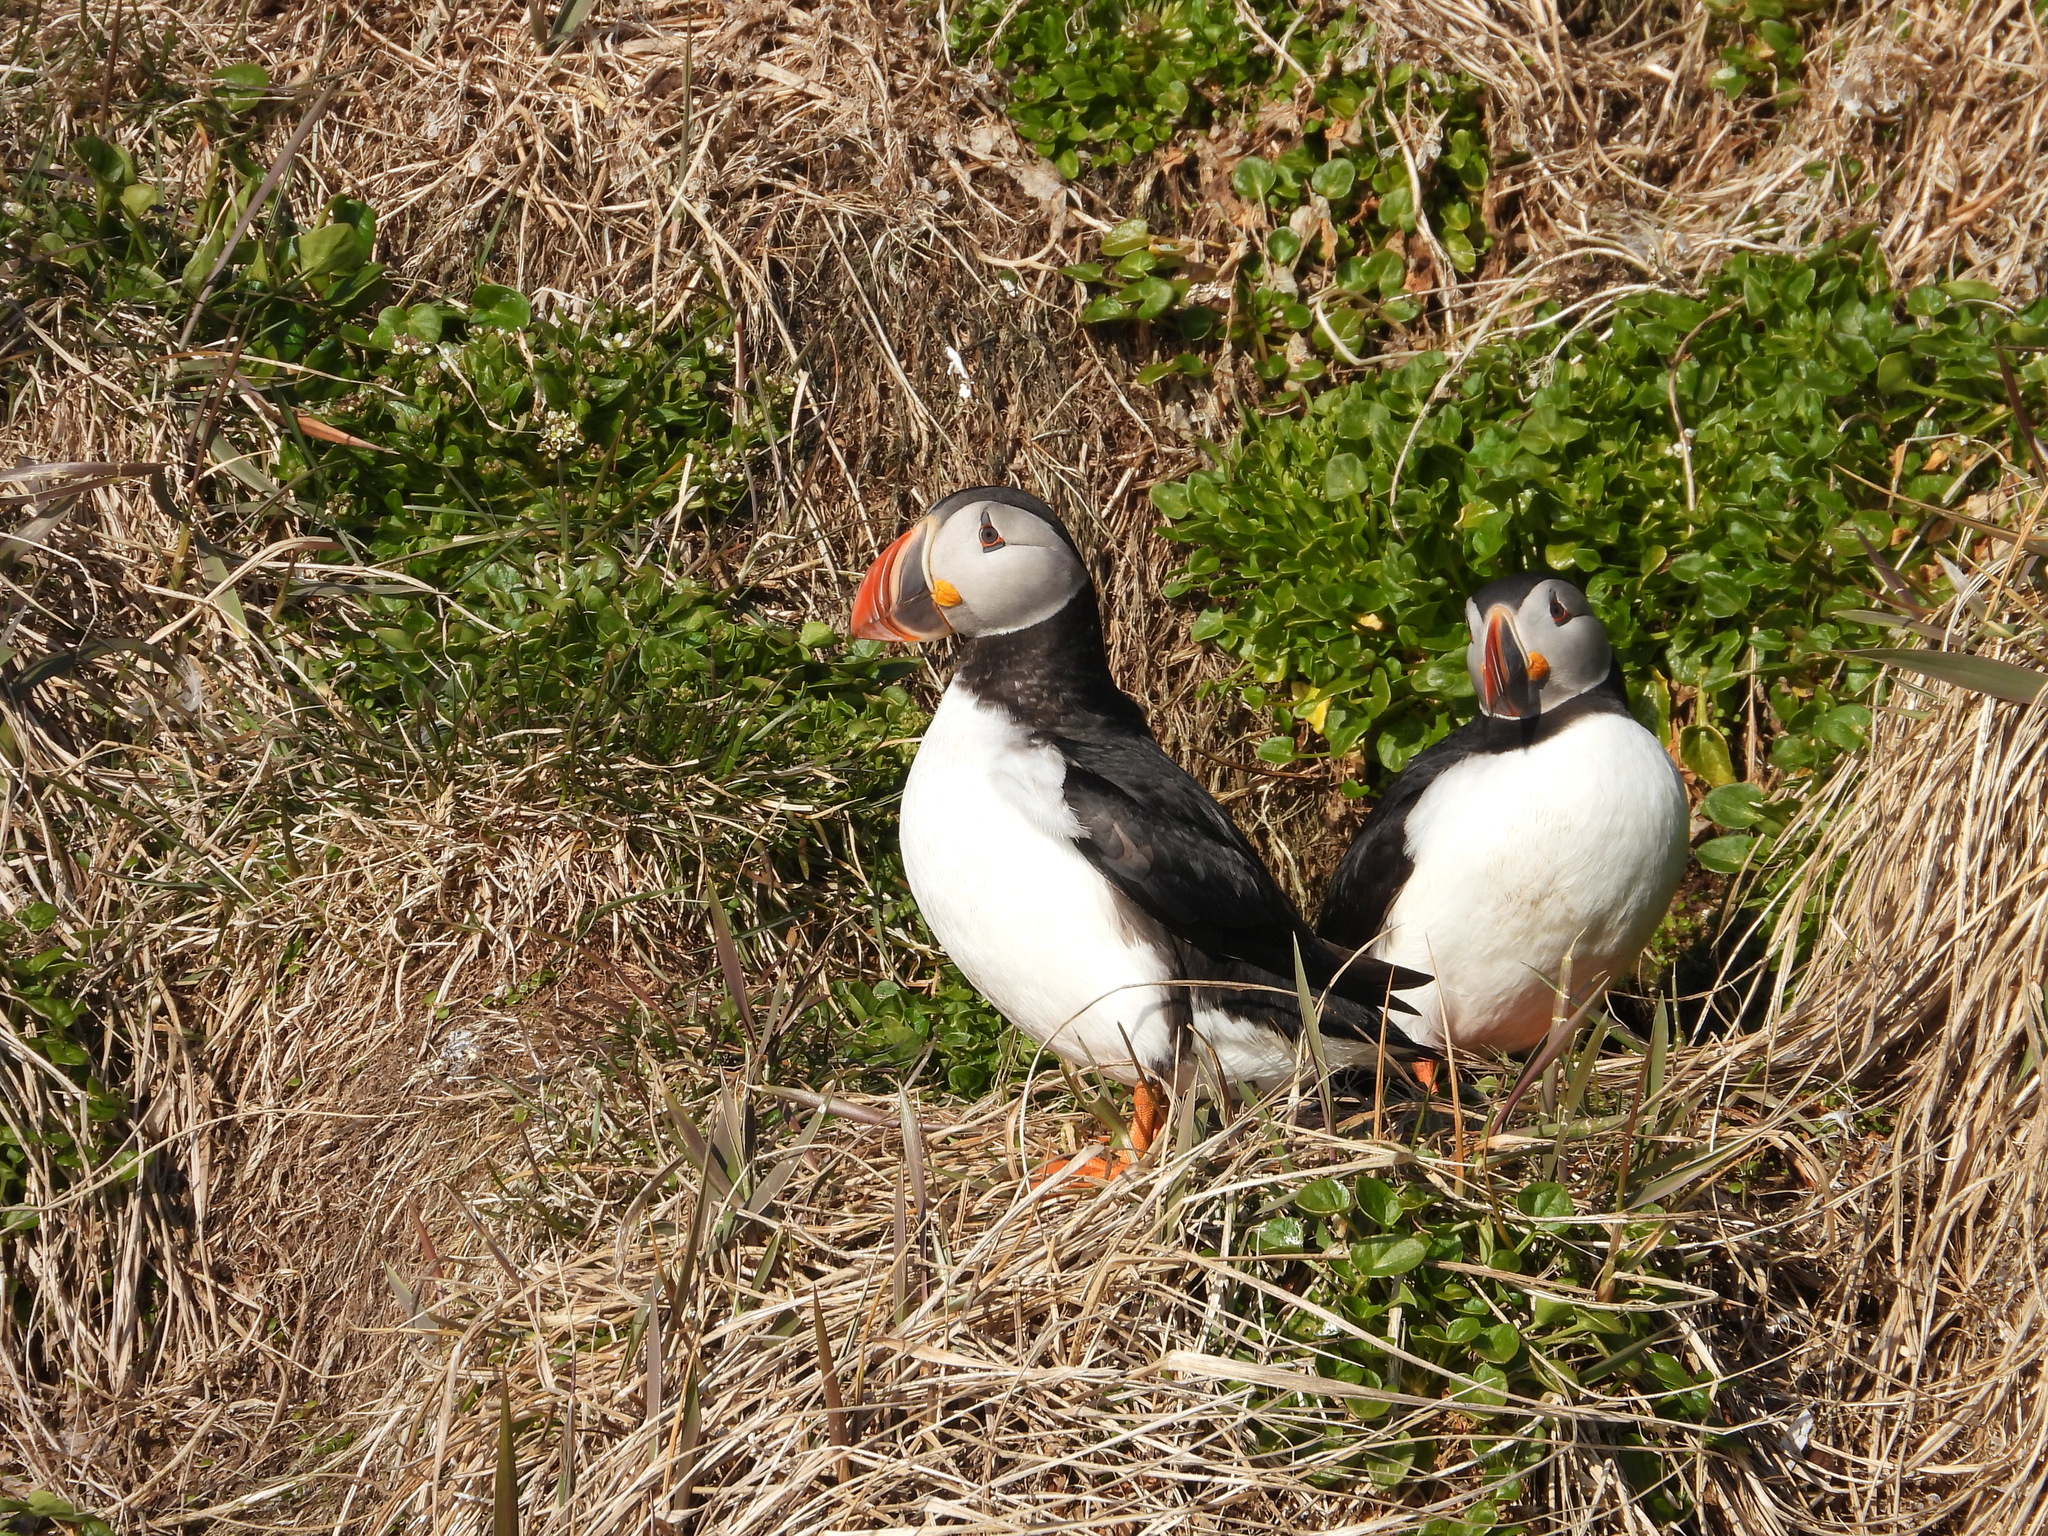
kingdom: Animalia
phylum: Chordata
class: Aves
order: Charadriiformes
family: Alcidae
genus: Fratercula
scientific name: Fratercula arctica
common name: Atlantic puffin
